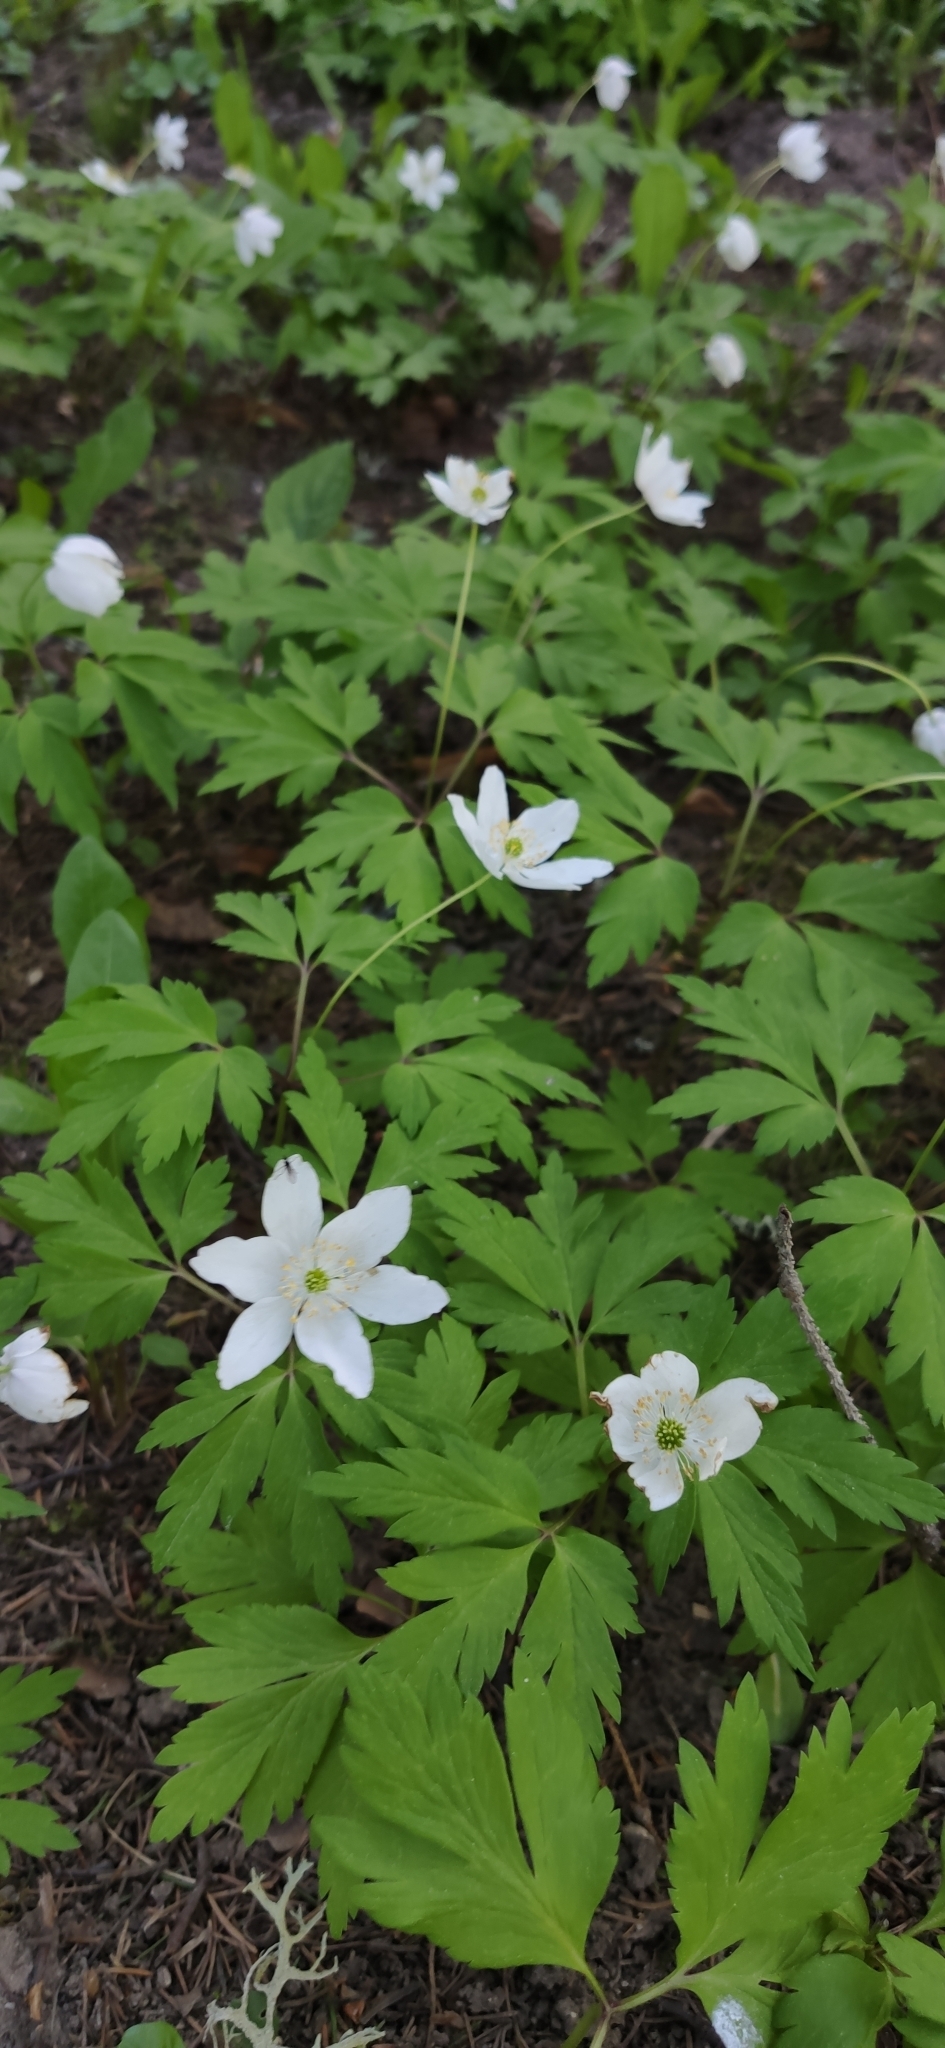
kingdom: Plantae
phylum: Tracheophyta
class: Magnoliopsida
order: Ranunculales
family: Ranunculaceae
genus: Anemone
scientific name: Anemone nemorosa
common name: Wood anemone
